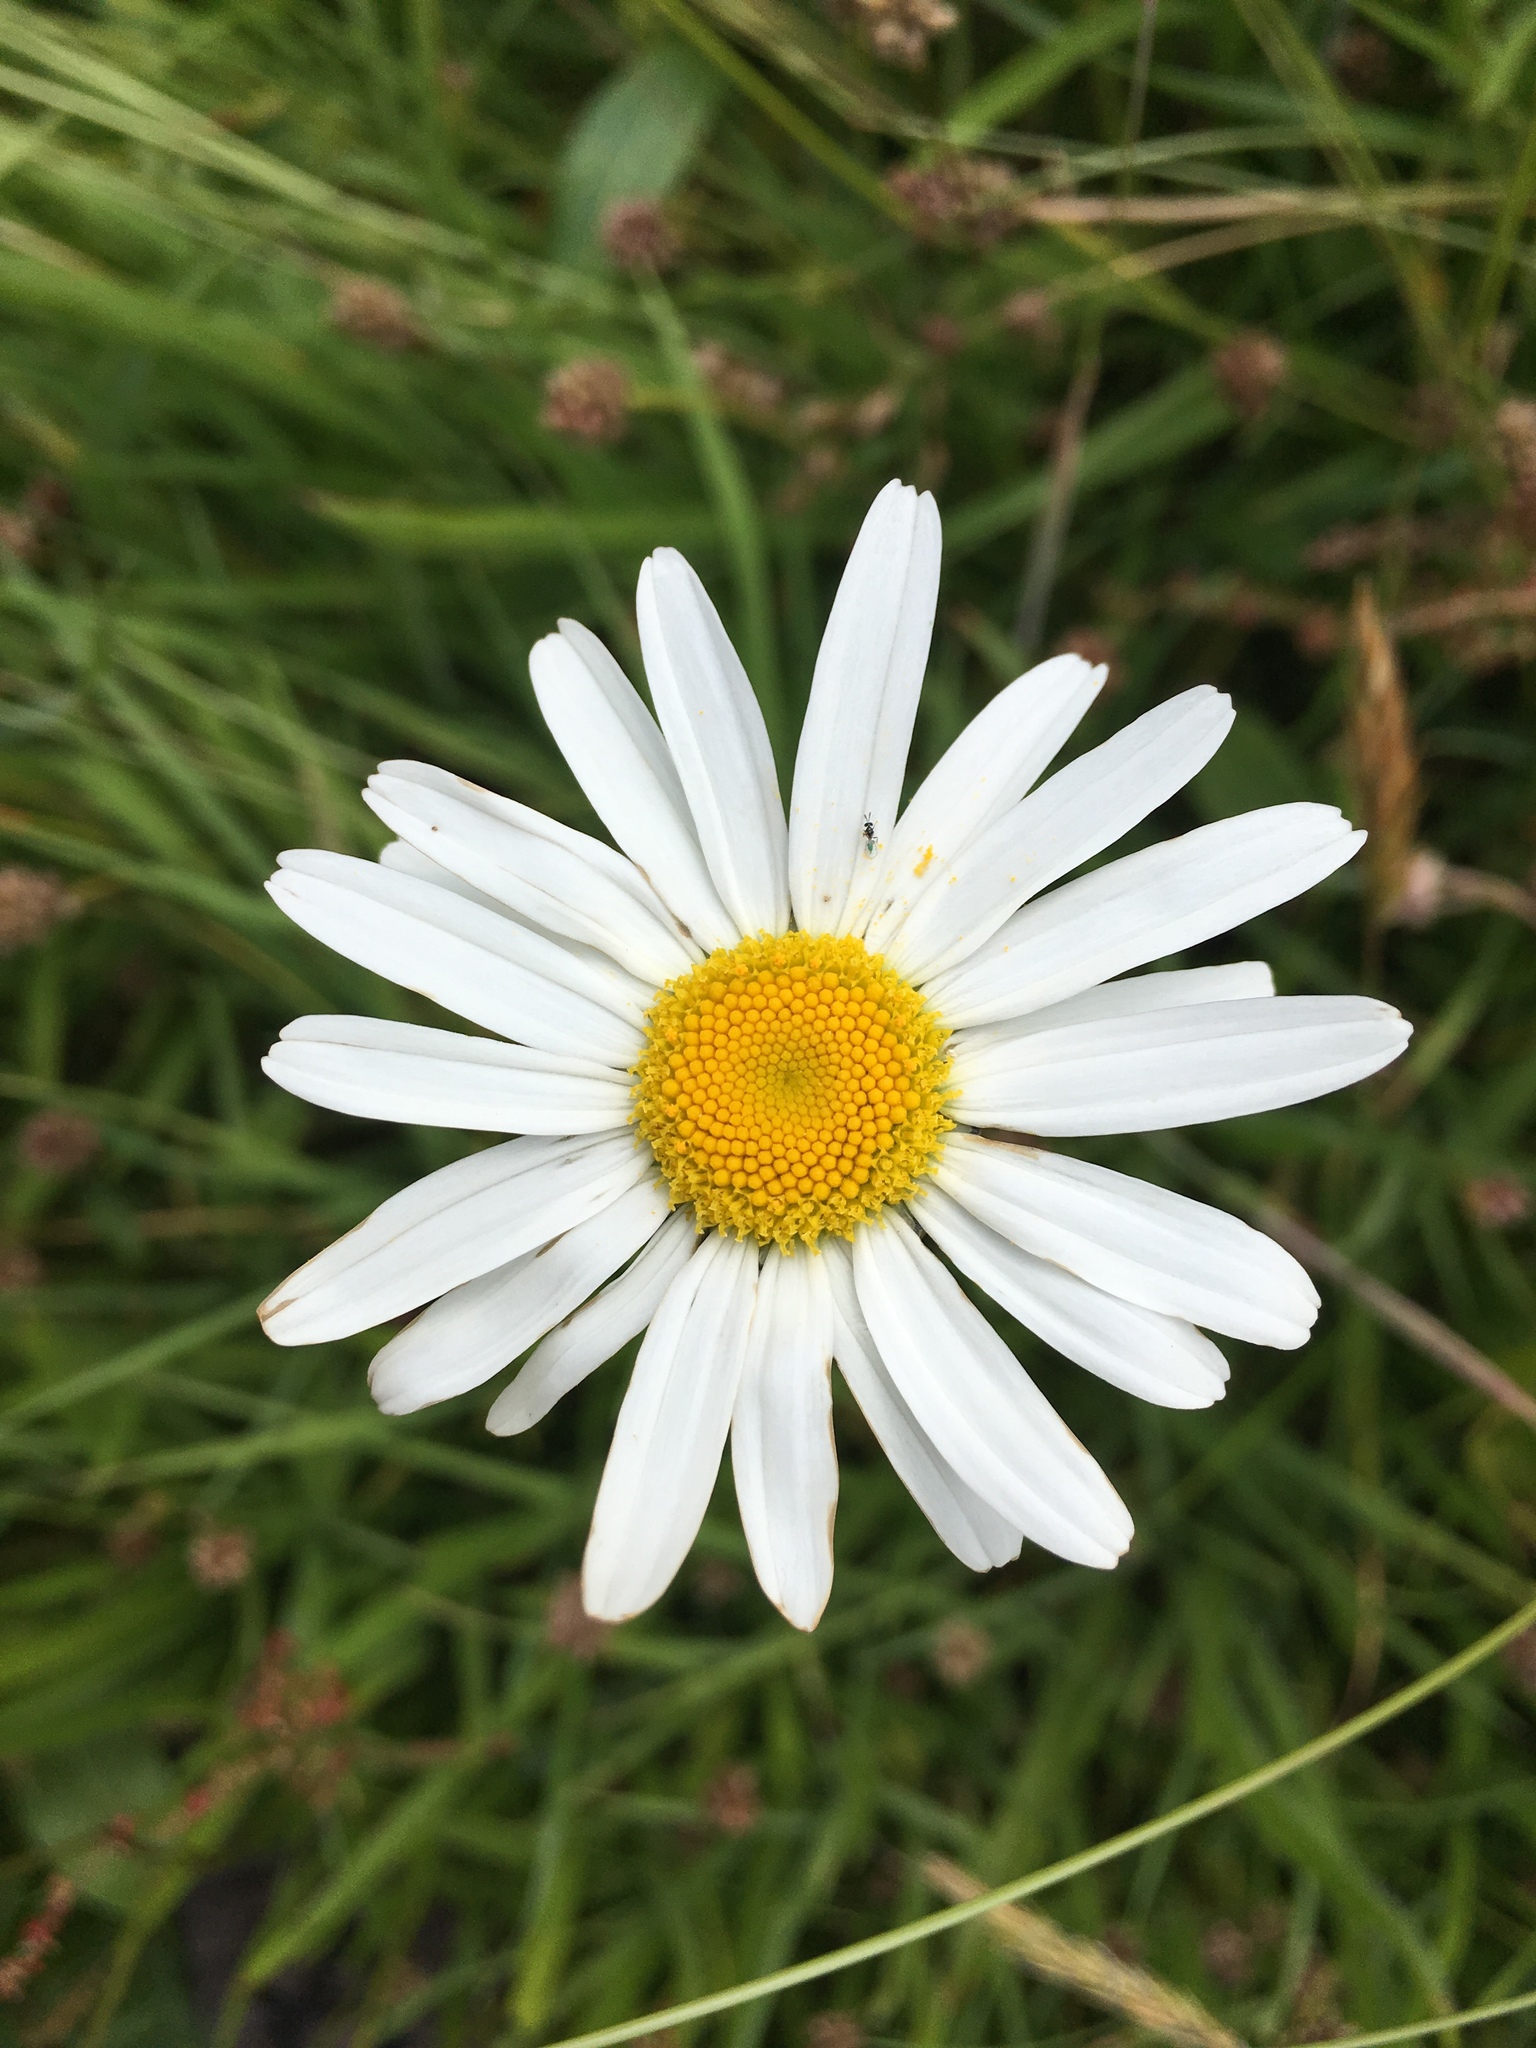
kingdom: Plantae
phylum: Tracheophyta
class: Magnoliopsida
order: Asterales
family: Asteraceae
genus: Leucanthemum
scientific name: Leucanthemum vulgare
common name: Oxeye daisy
